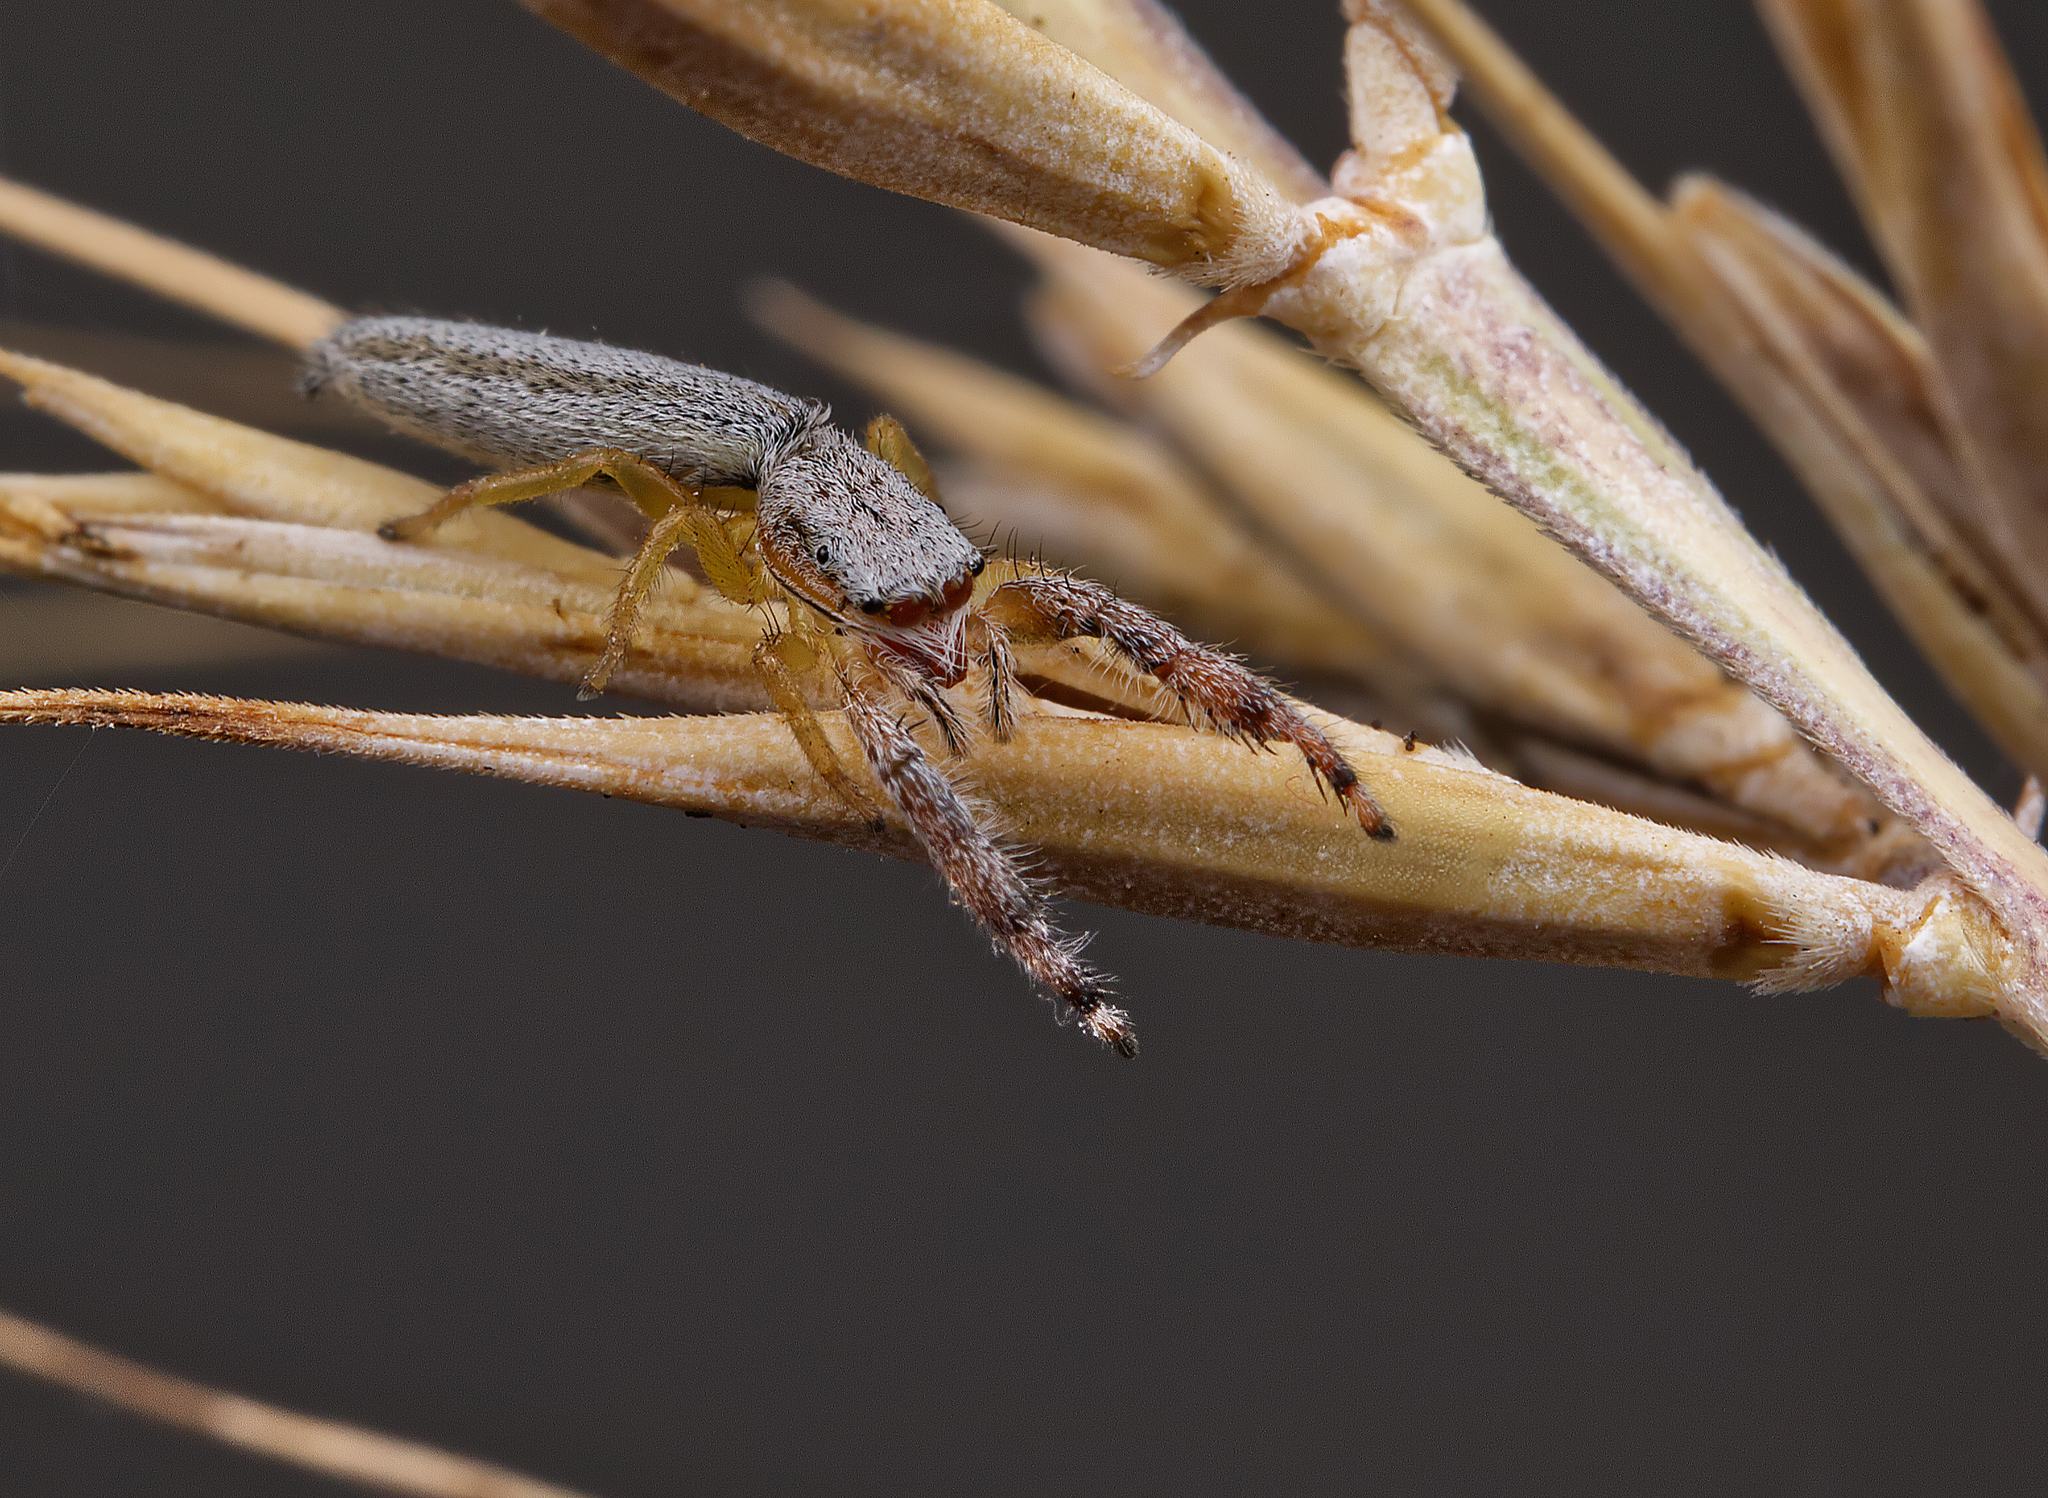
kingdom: Animalia
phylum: Arthropoda
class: Arachnida
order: Araneae
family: Salticidae
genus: Marpissa
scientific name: Marpissa pikei
